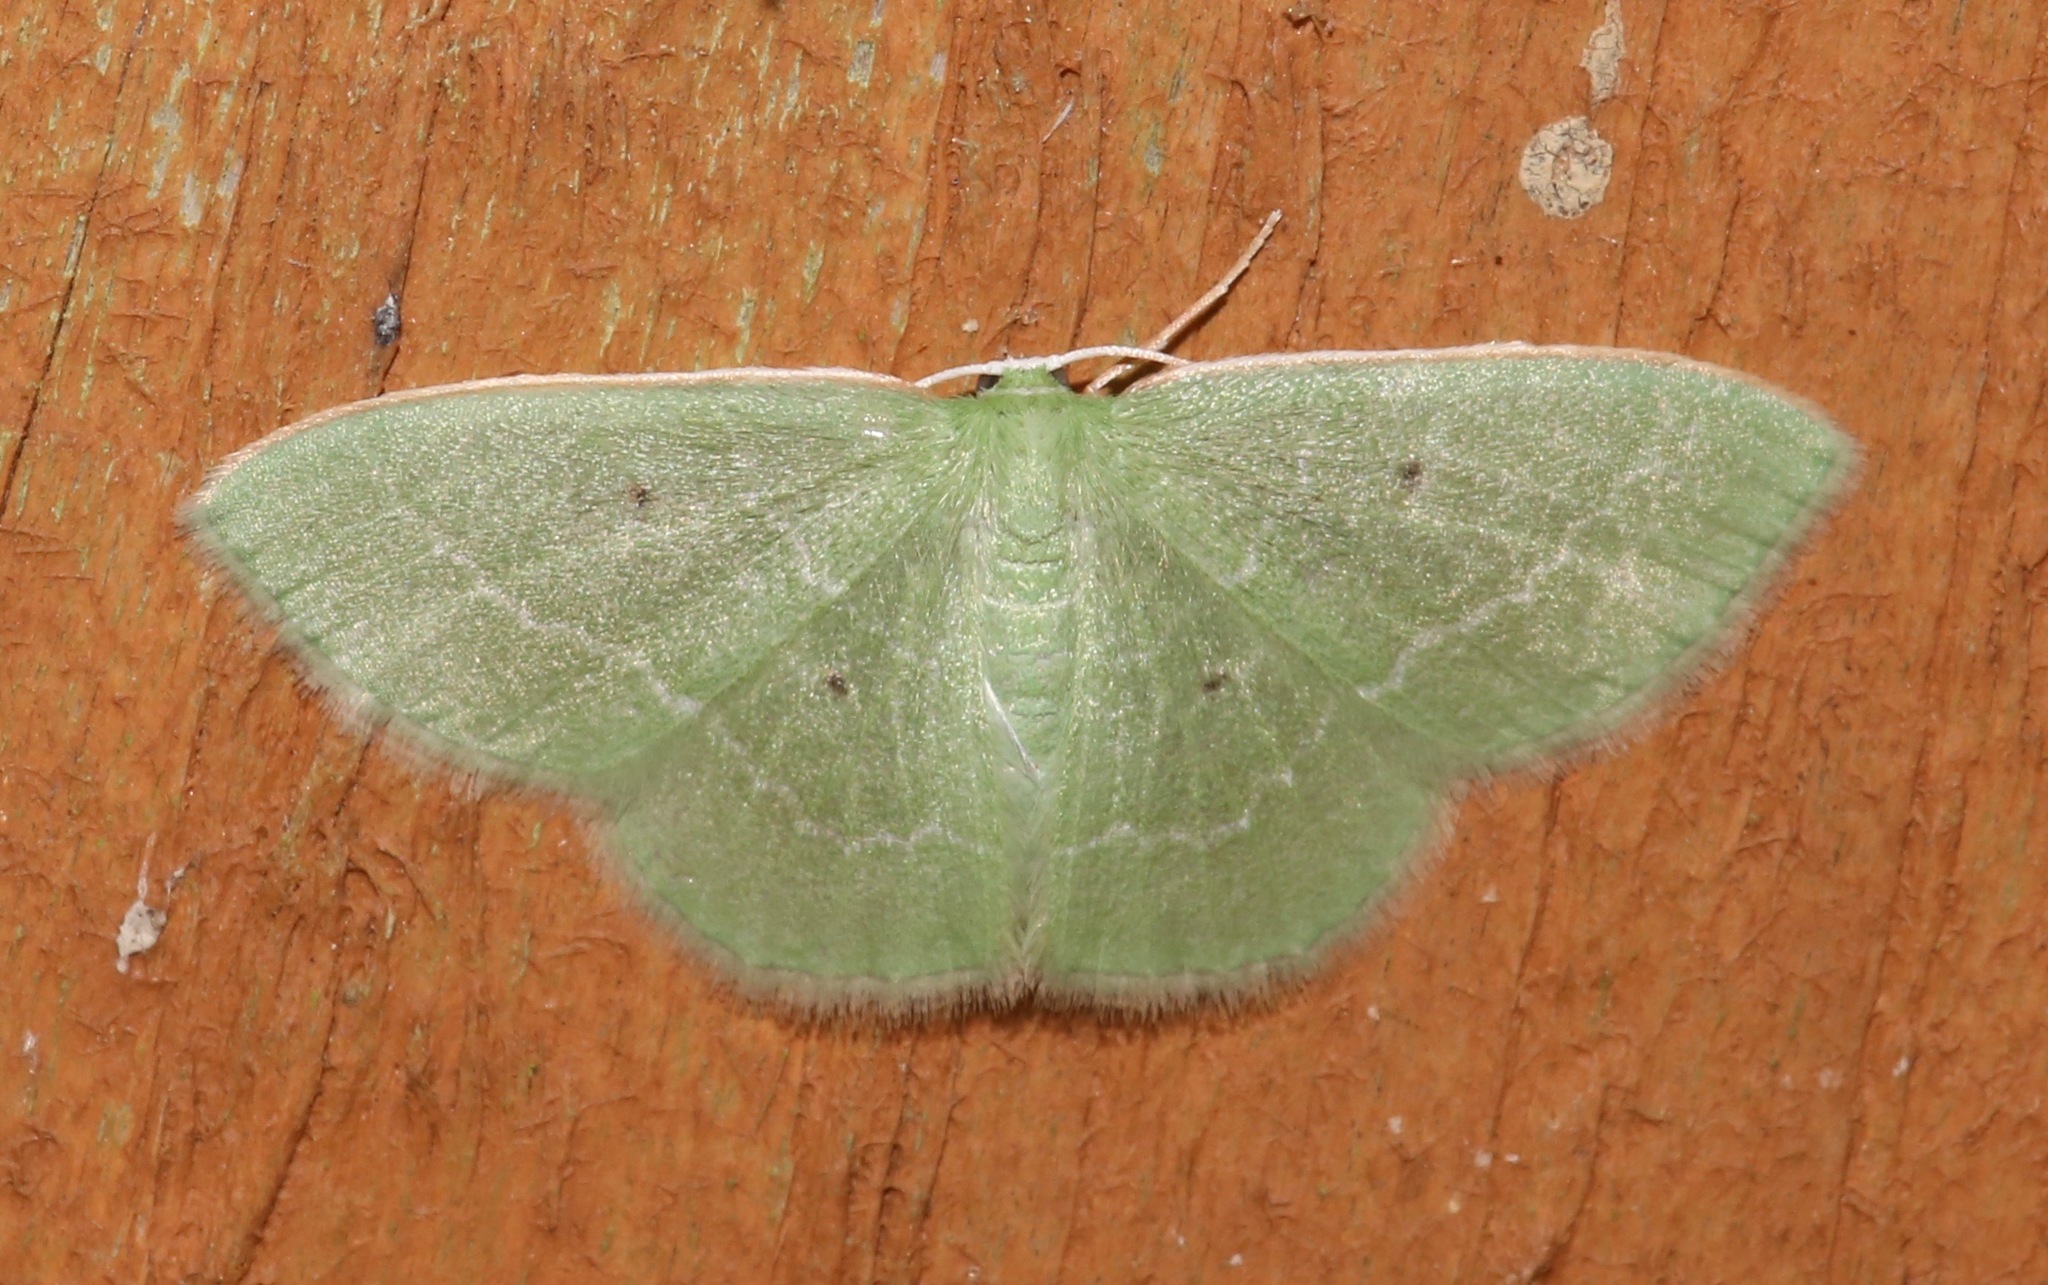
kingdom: Animalia
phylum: Arthropoda
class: Insecta
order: Lepidoptera
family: Geometridae
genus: Nemoria
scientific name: Nemoria elfa
